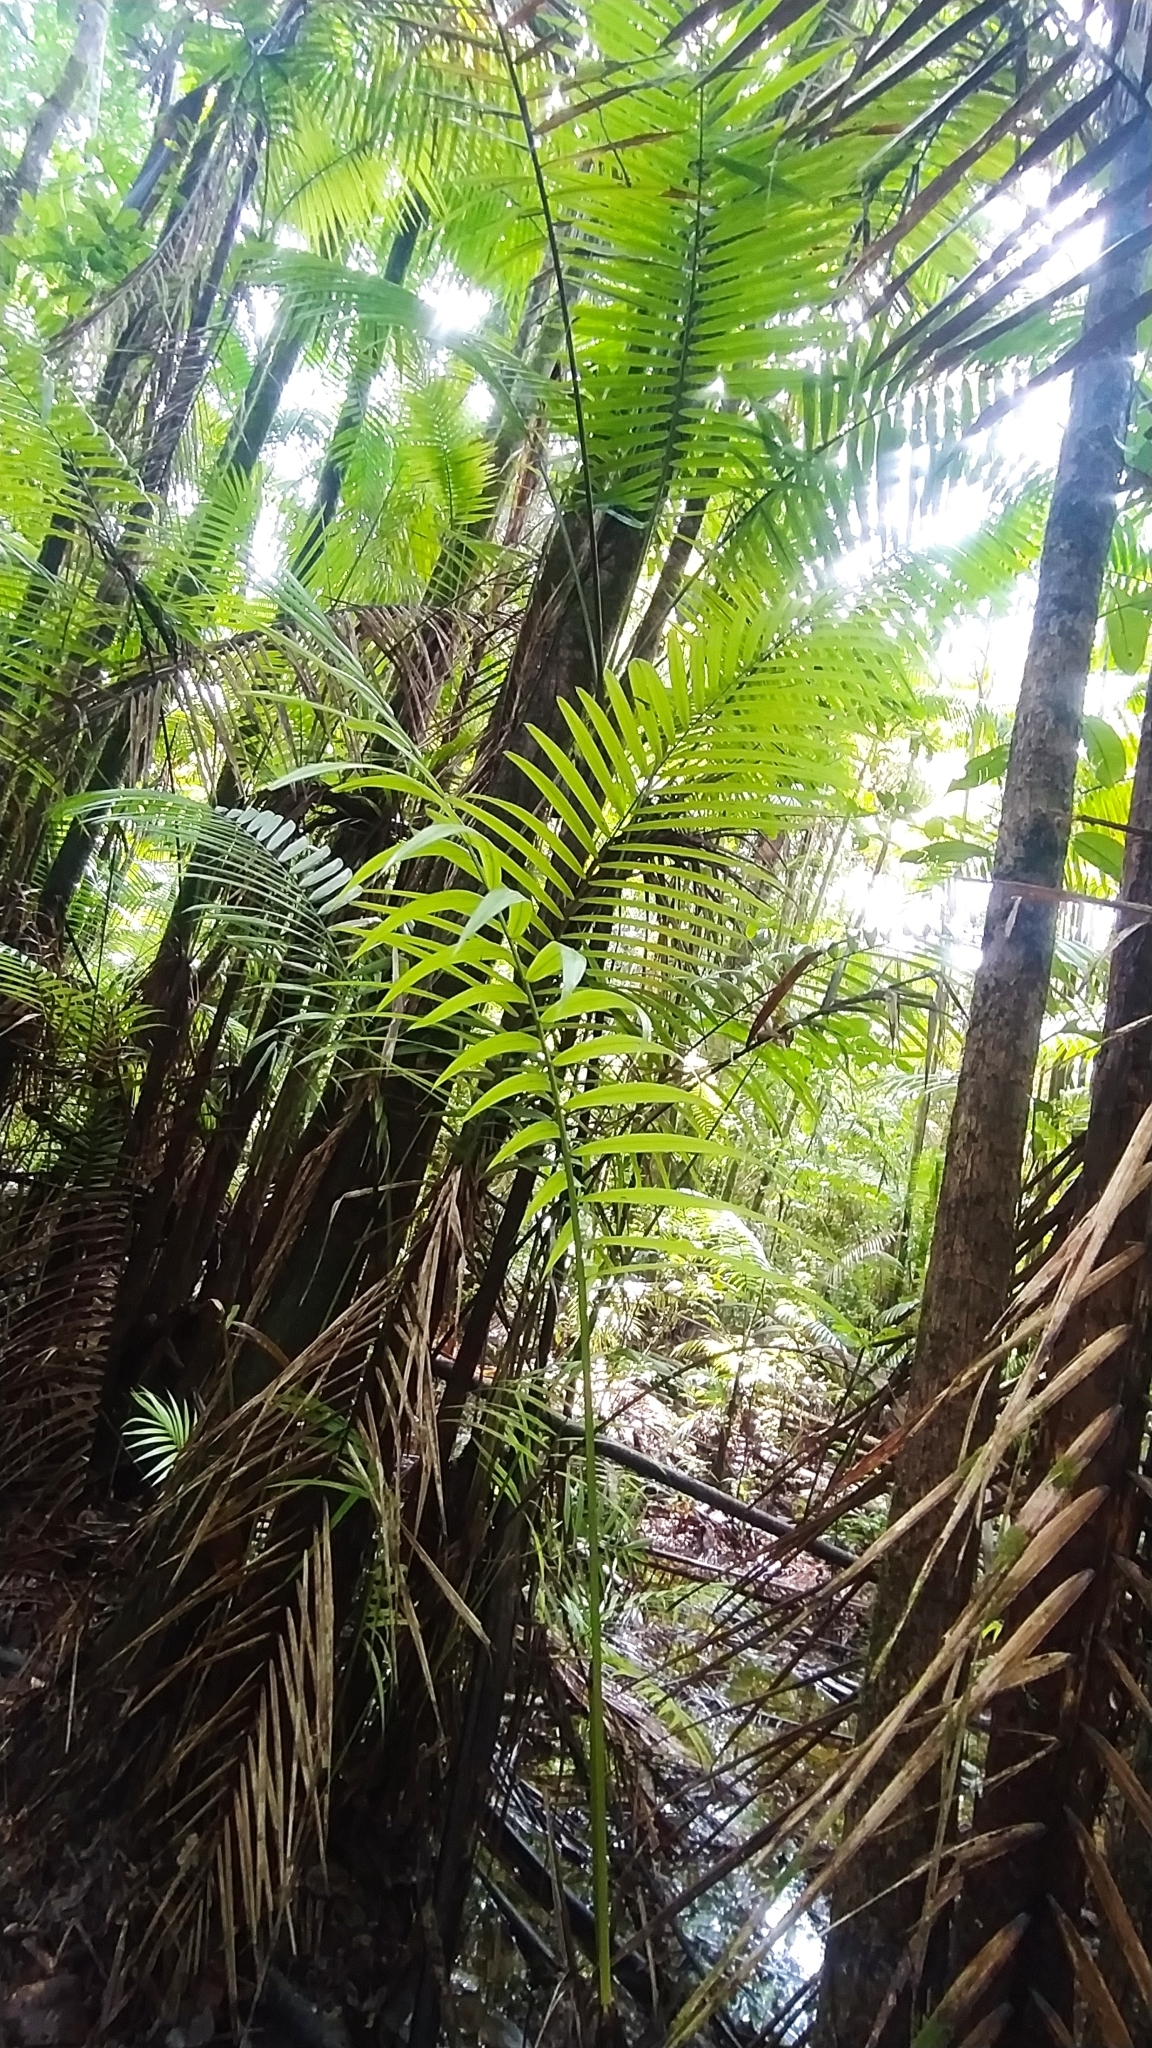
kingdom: Plantae
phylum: Tracheophyta
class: Liliopsida
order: Arecales
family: Arecaceae
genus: Euterpe
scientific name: Euterpe oleracea
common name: Assai palm
